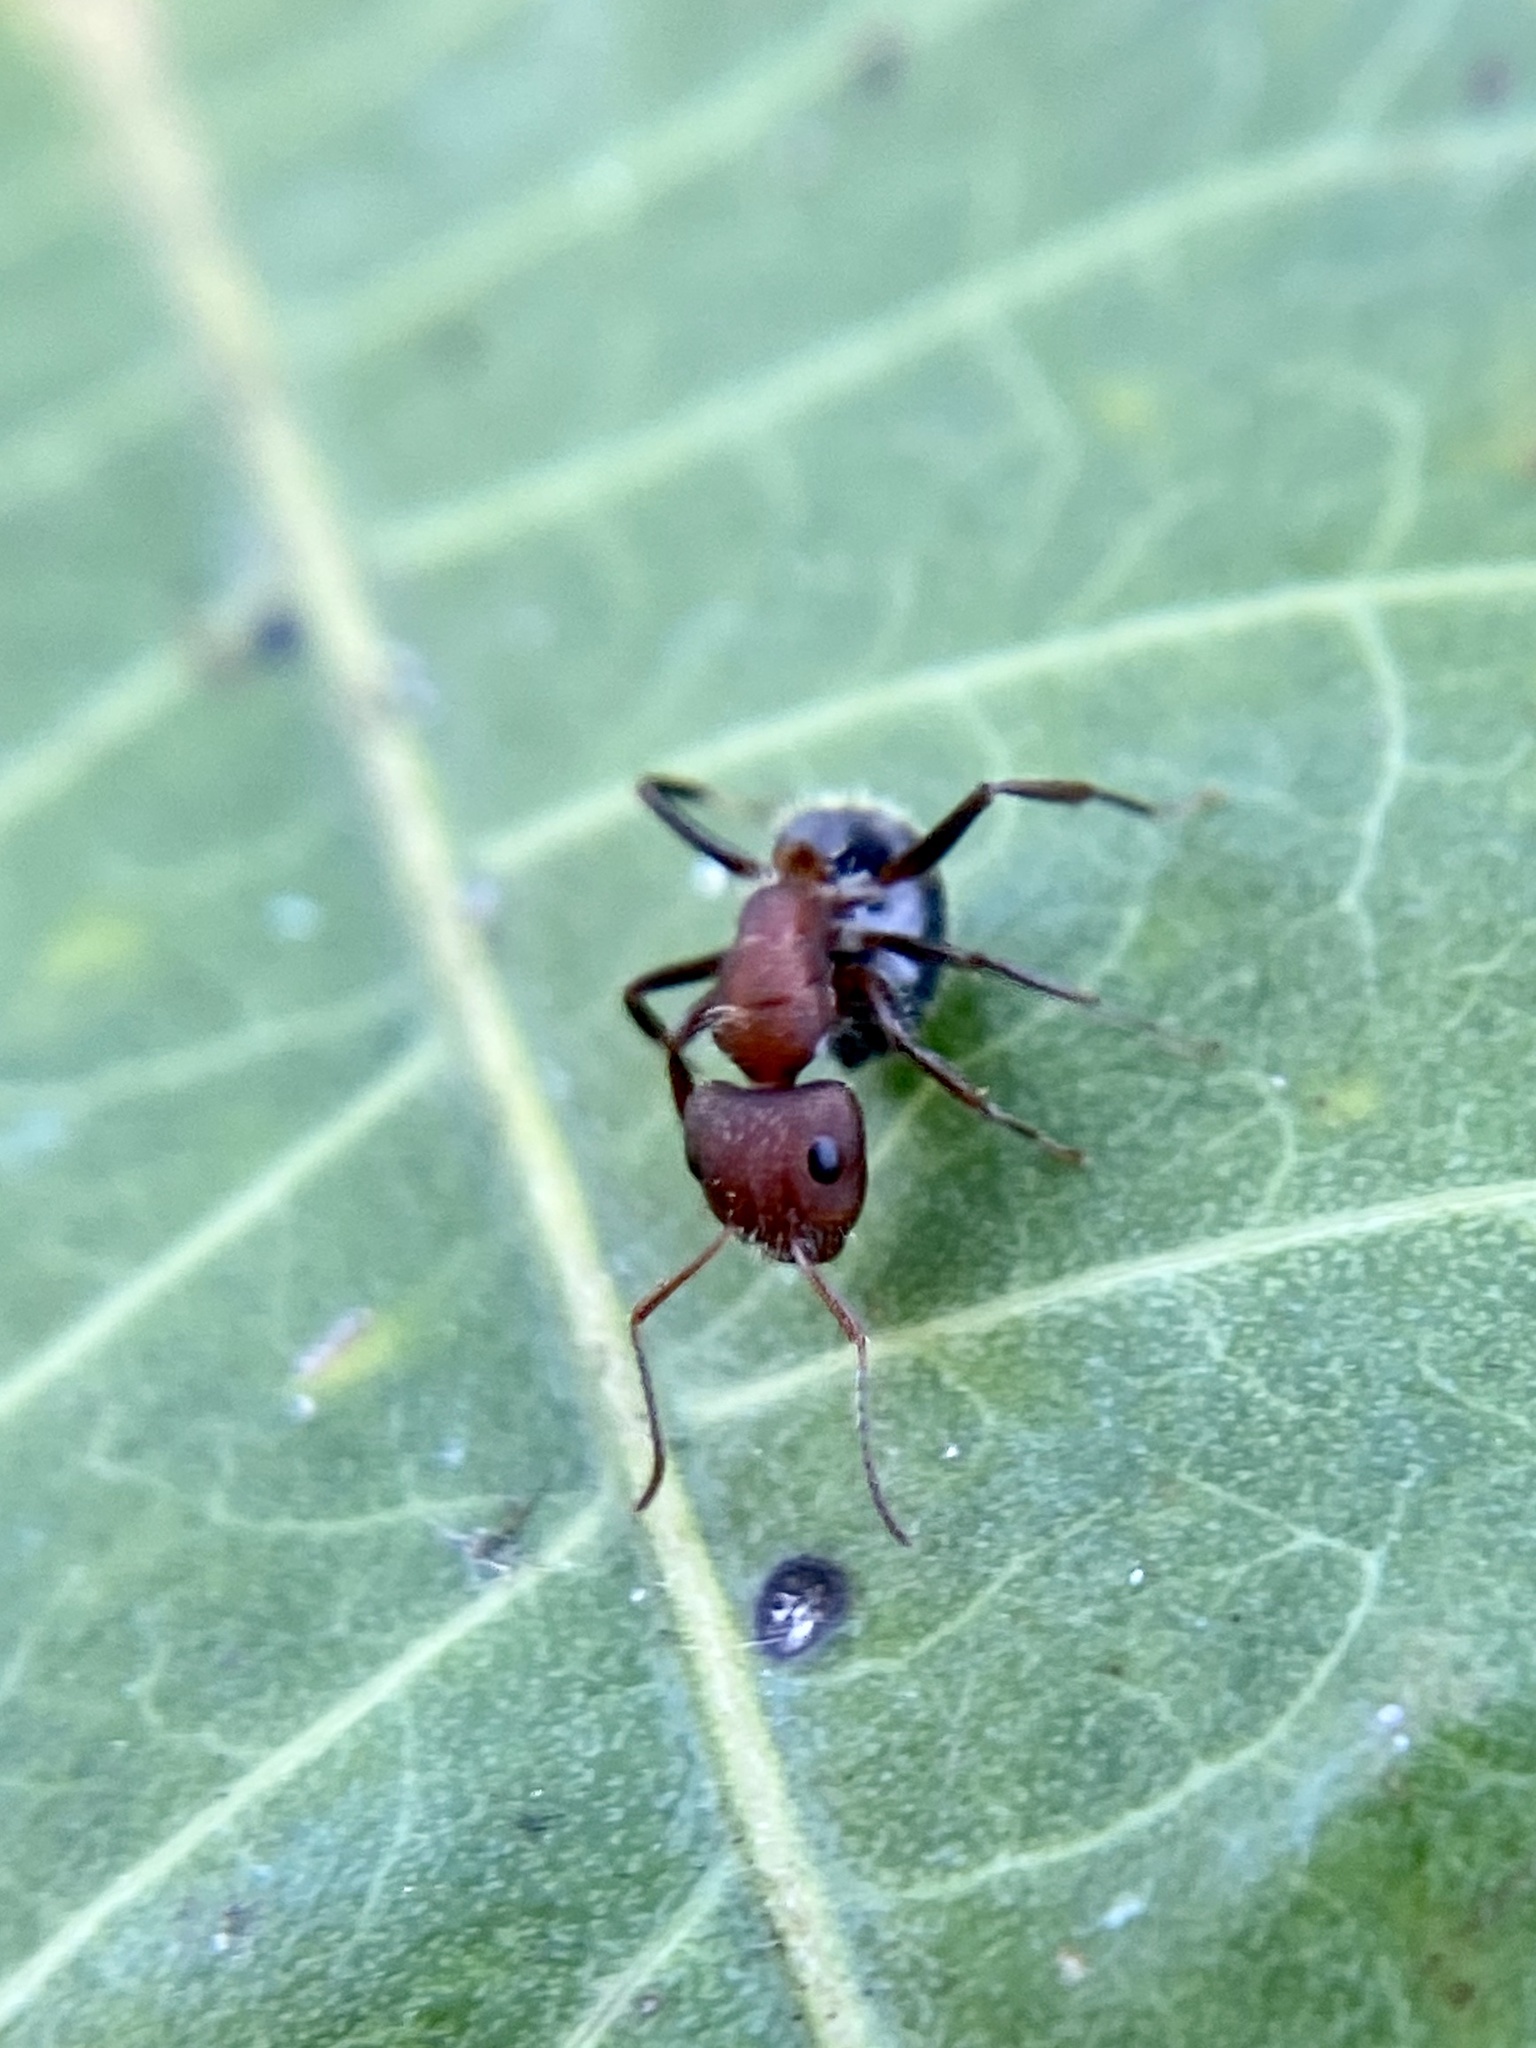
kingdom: Animalia
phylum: Arthropoda
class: Insecta
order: Hymenoptera
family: Formicidae
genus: Camponotus
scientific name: Camponotus planatus
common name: Compact carpenter ant
